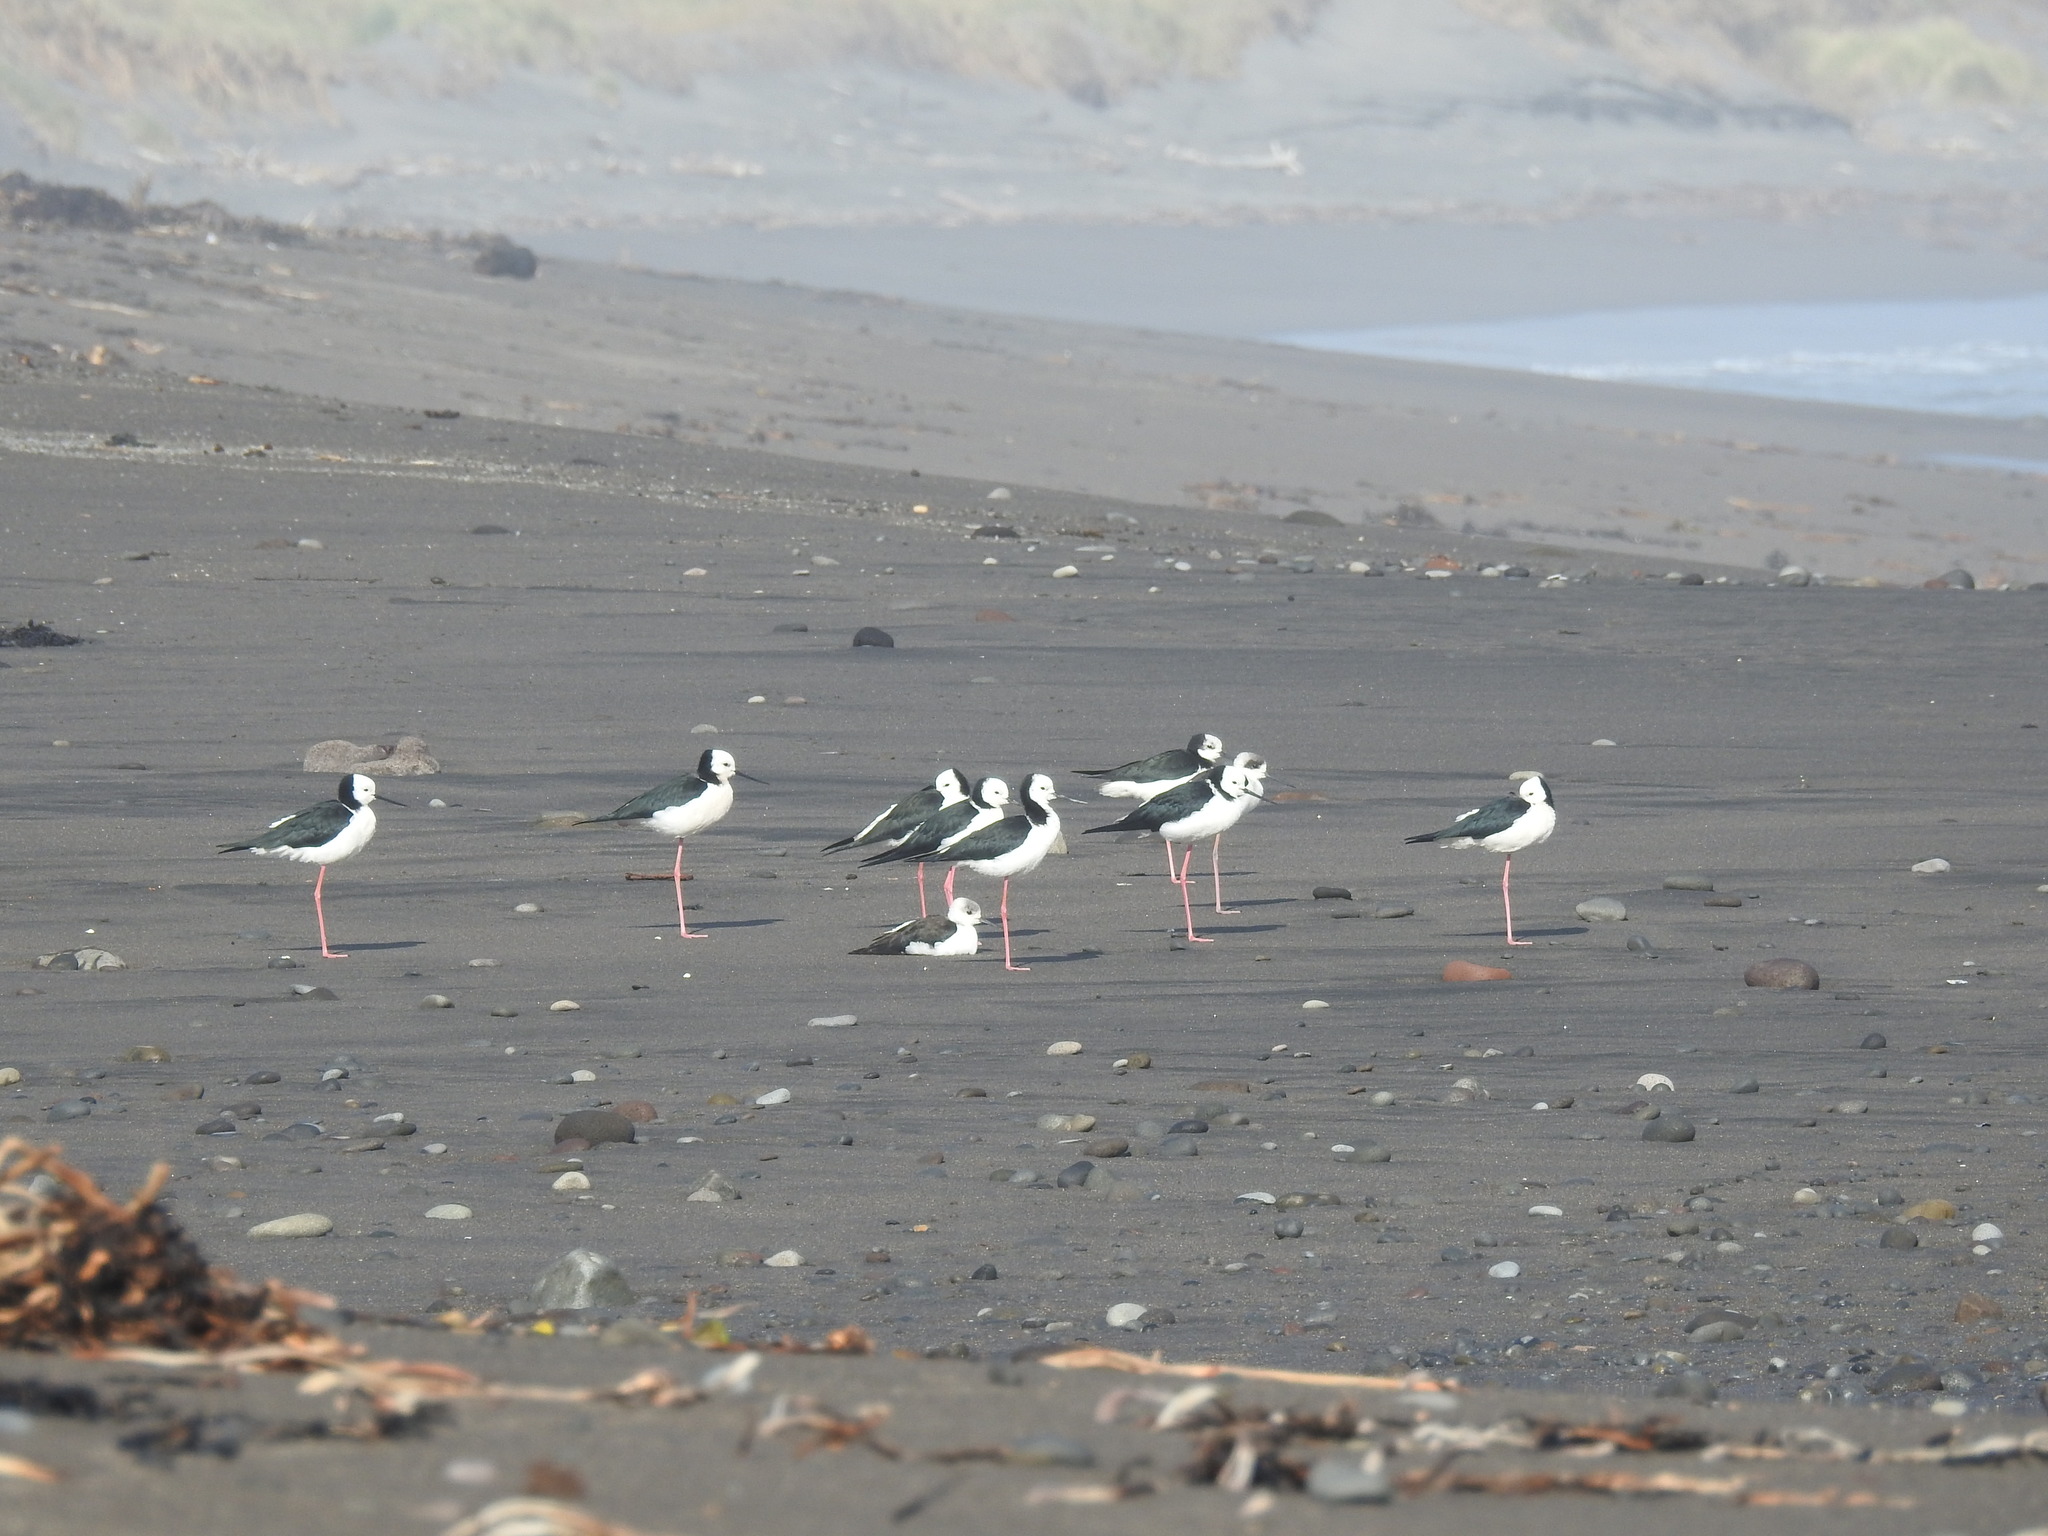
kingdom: Animalia
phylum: Chordata
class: Aves
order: Charadriiformes
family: Recurvirostridae
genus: Himantopus
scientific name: Himantopus leucocephalus
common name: White-headed stilt
